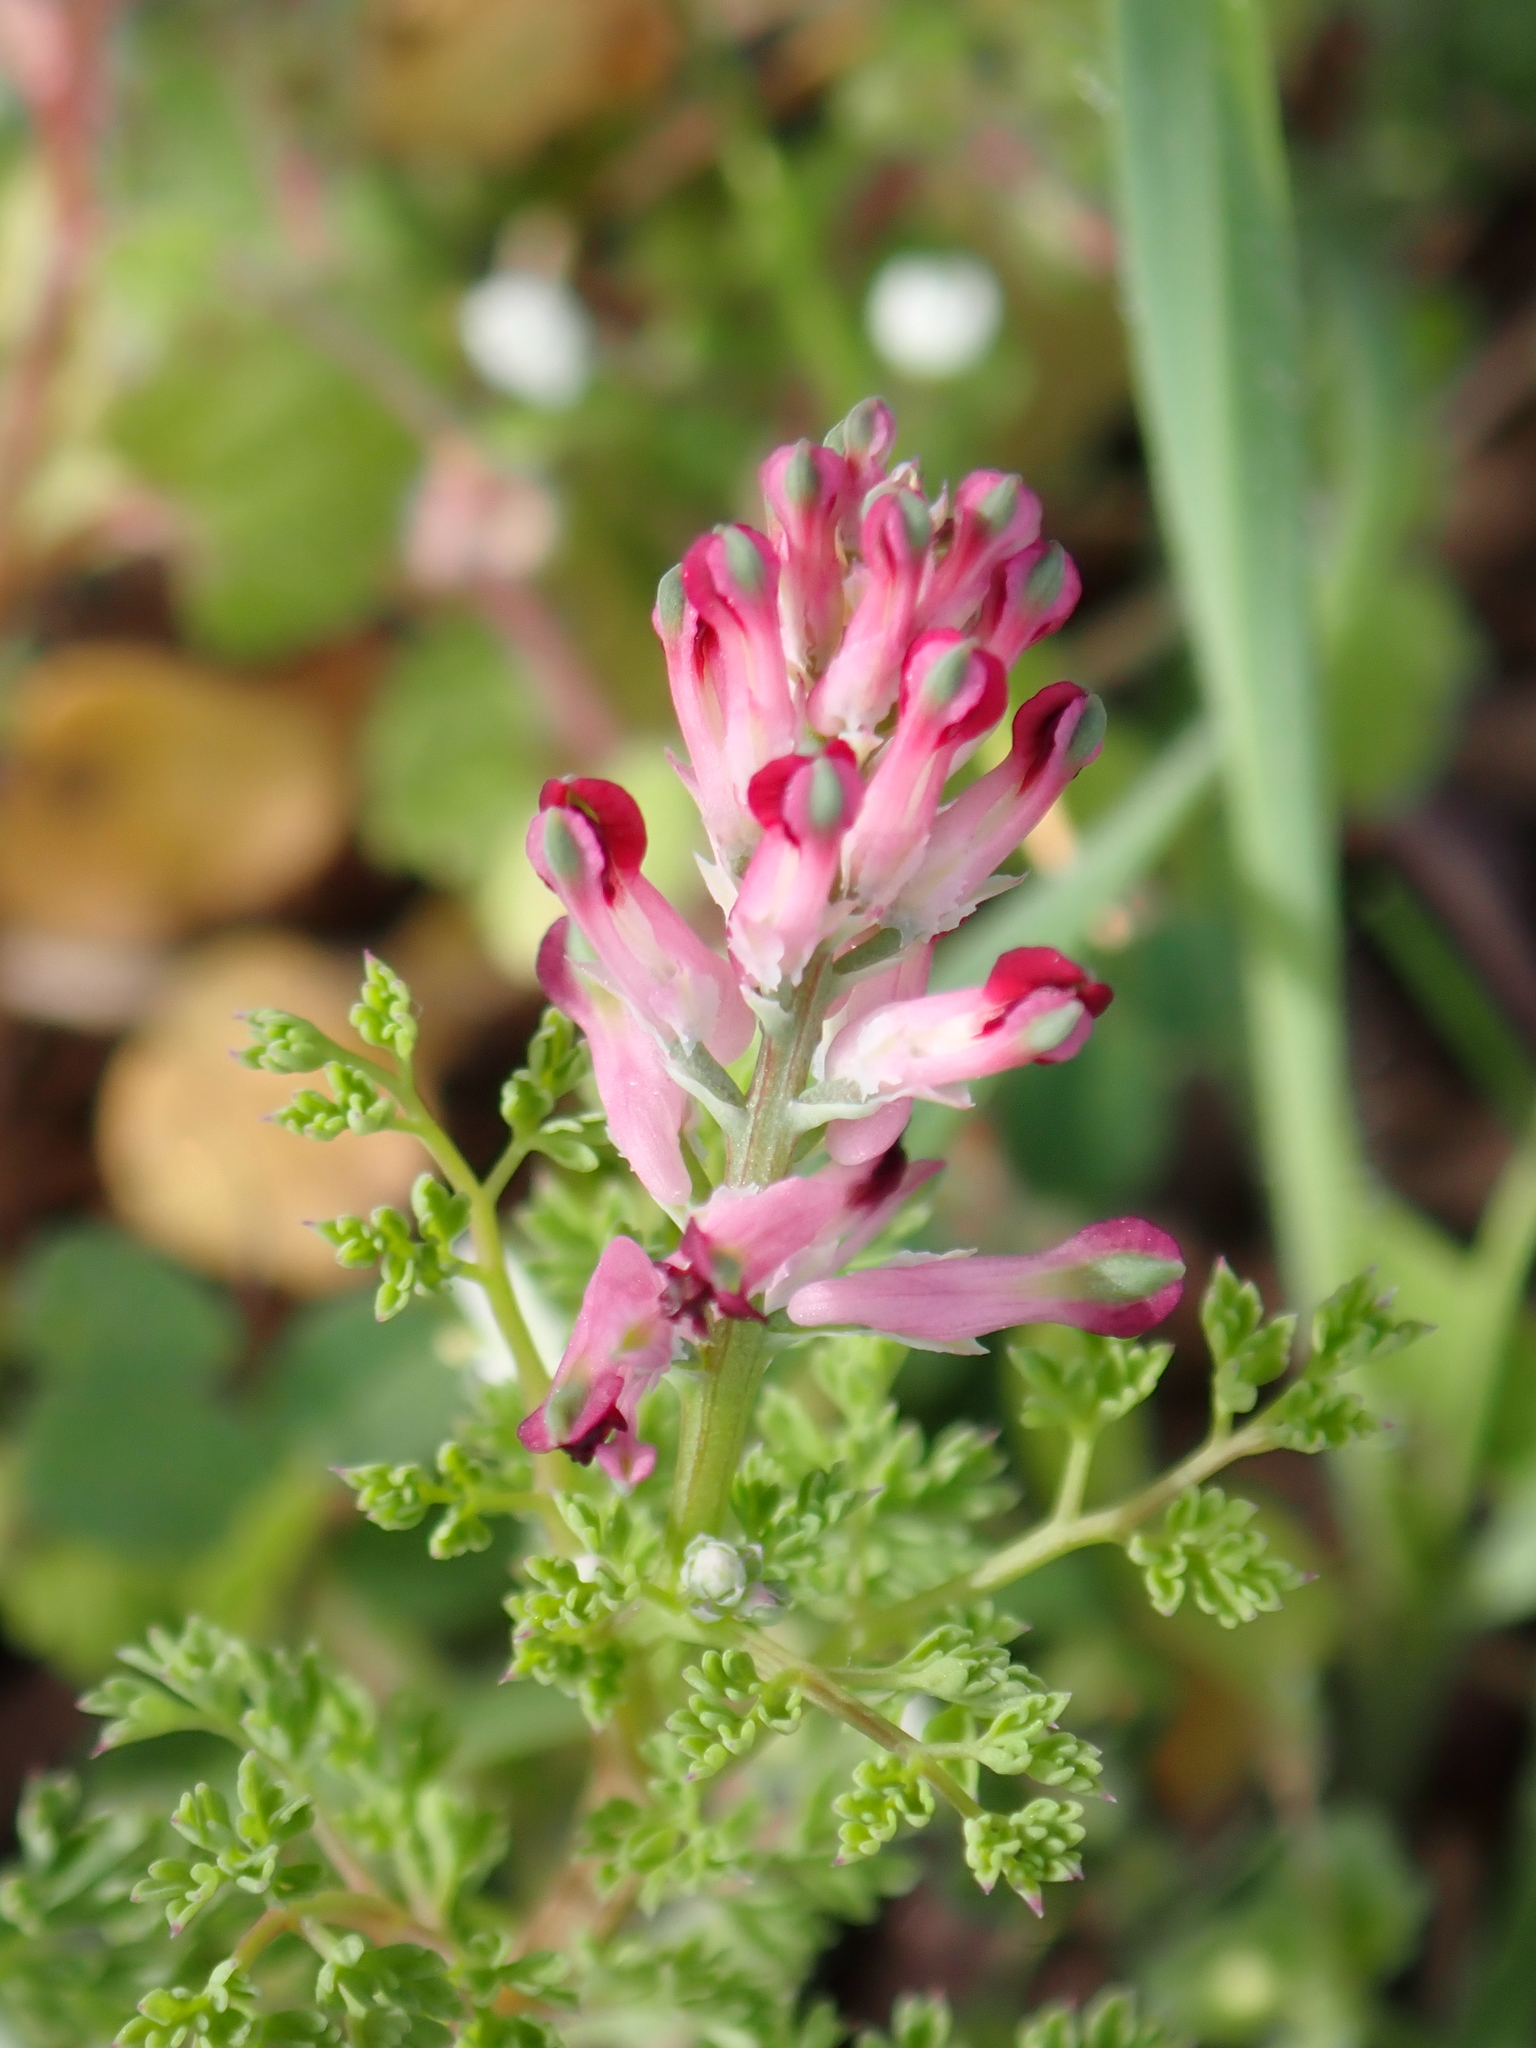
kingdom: Plantae
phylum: Tracheophyta
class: Magnoliopsida
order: Ranunculales
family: Papaveraceae
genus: Fumaria
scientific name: Fumaria officinalis
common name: Common fumitory
